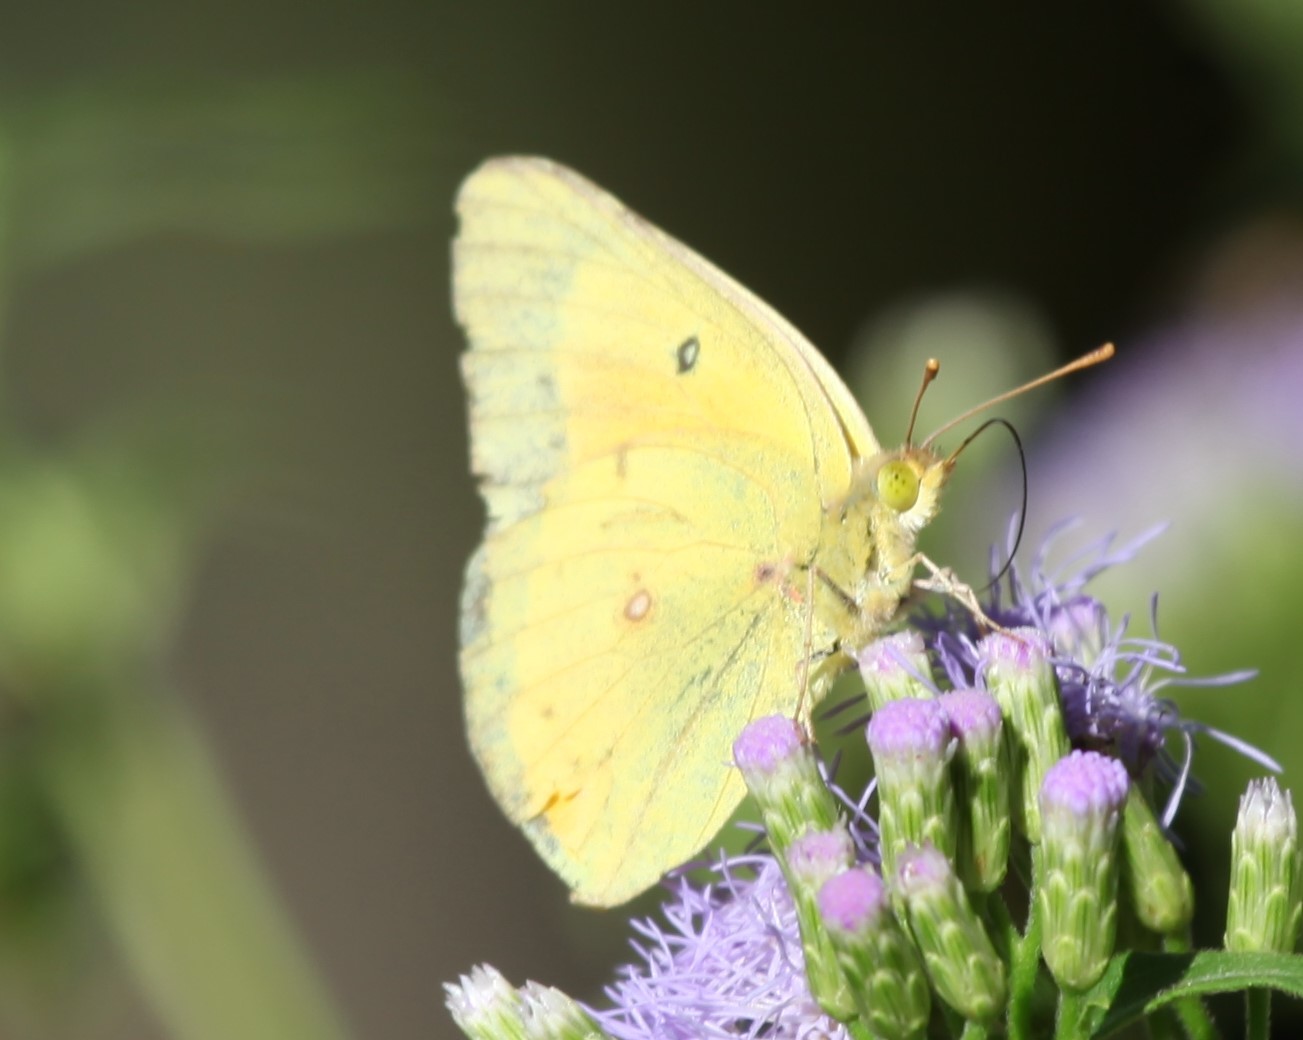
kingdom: Animalia
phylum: Arthropoda
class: Insecta
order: Lepidoptera
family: Pieridae
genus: Colias
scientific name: Colias eurytheme
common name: Alfalfa butterfly
